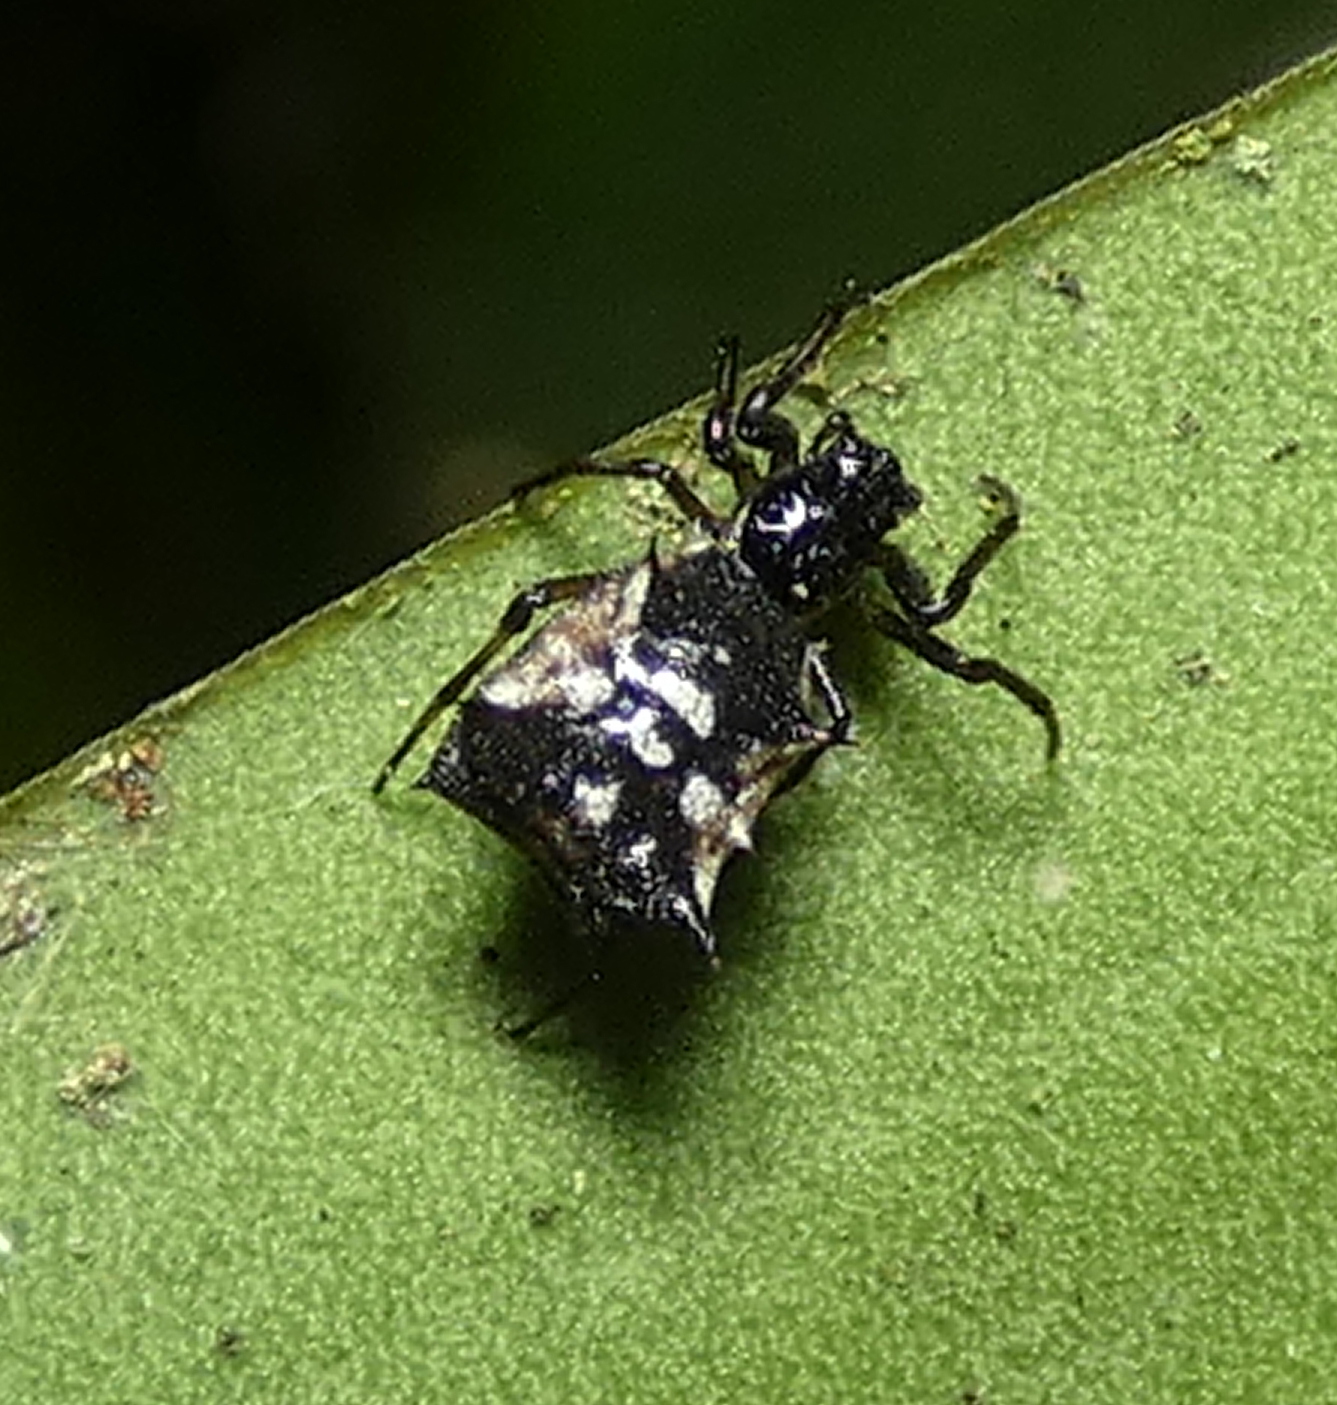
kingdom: Animalia
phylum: Arthropoda
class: Arachnida
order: Araneae
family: Araneidae
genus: Micrathena
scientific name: Micrathena picta
